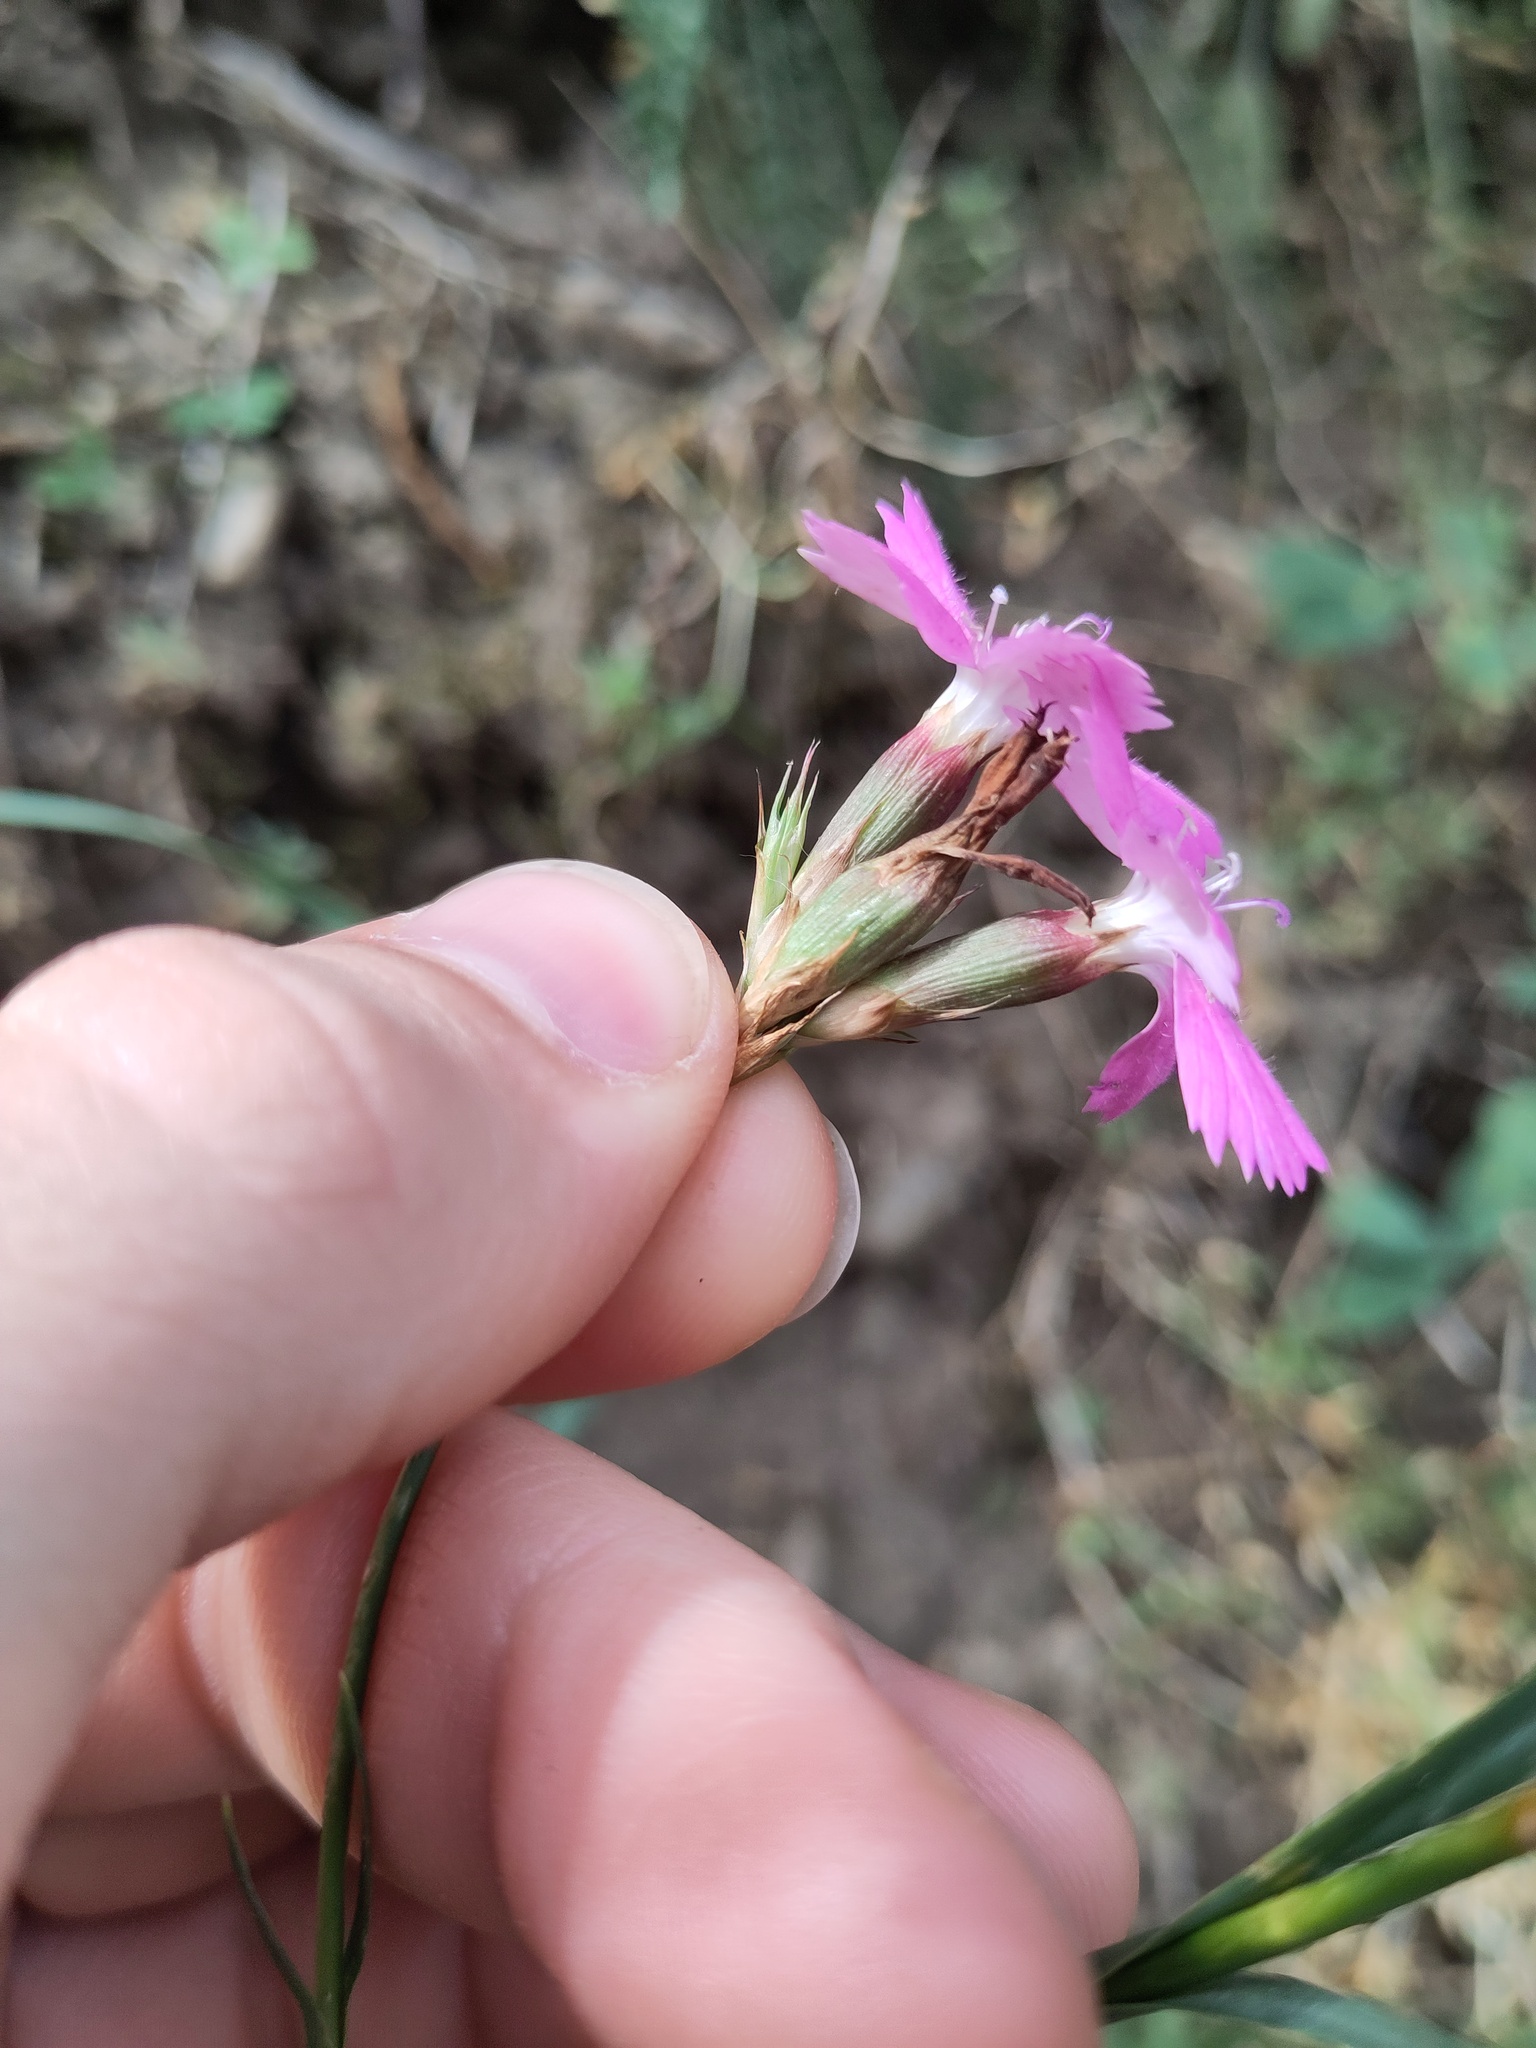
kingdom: Plantae
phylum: Tracheophyta
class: Magnoliopsida
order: Caryophyllales
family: Caryophyllaceae
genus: Dianthus
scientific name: Dianthus carthusianorum
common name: Carthusian pink
